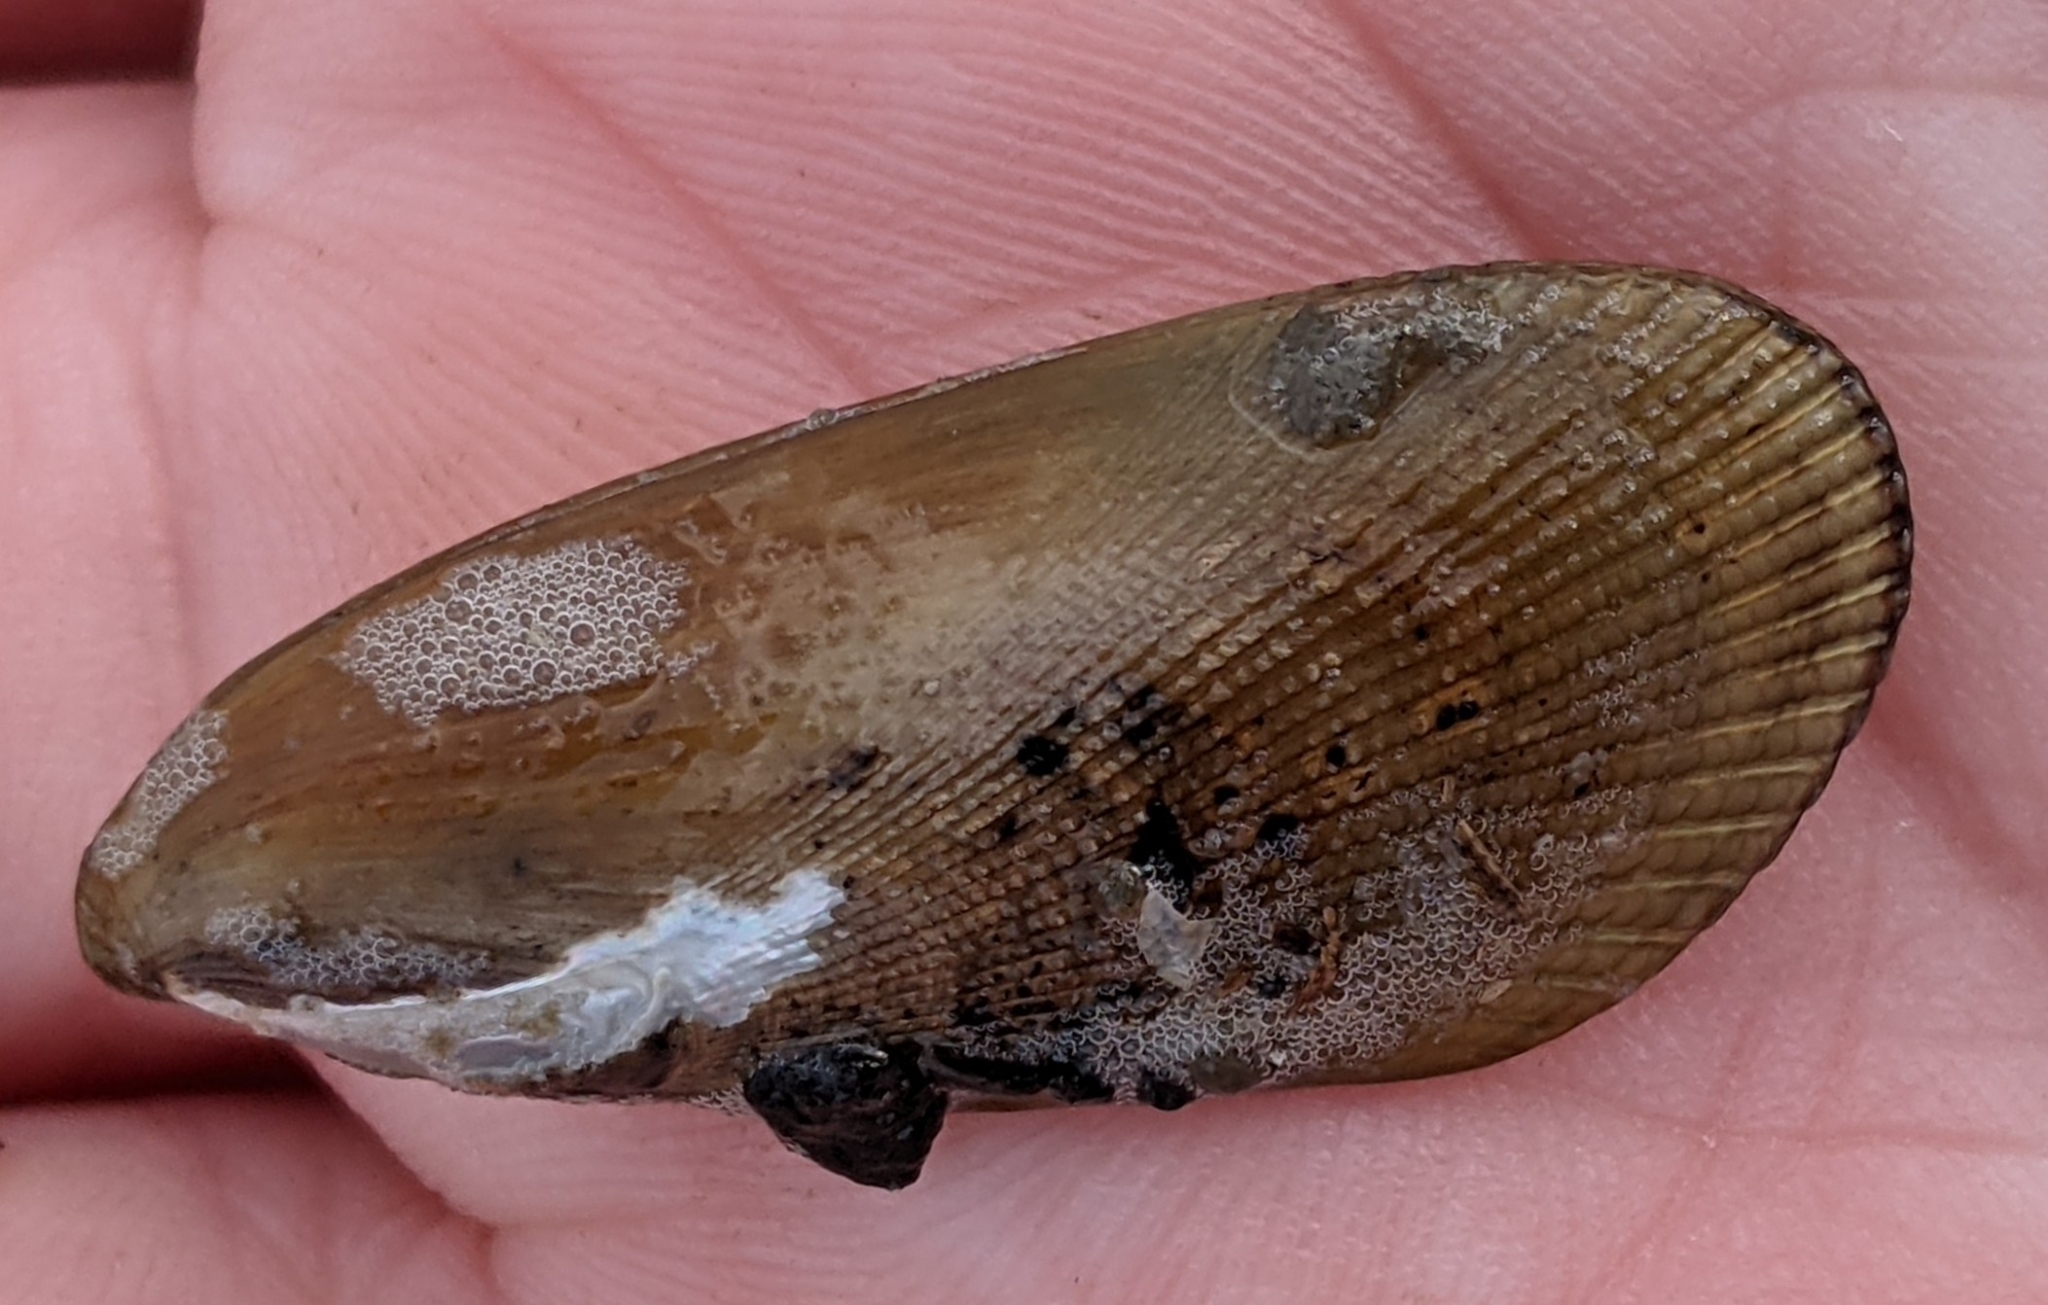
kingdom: Animalia
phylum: Mollusca
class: Bivalvia
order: Mytilida
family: Mytilidae
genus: Geukensia
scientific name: Geukensia granosissima
